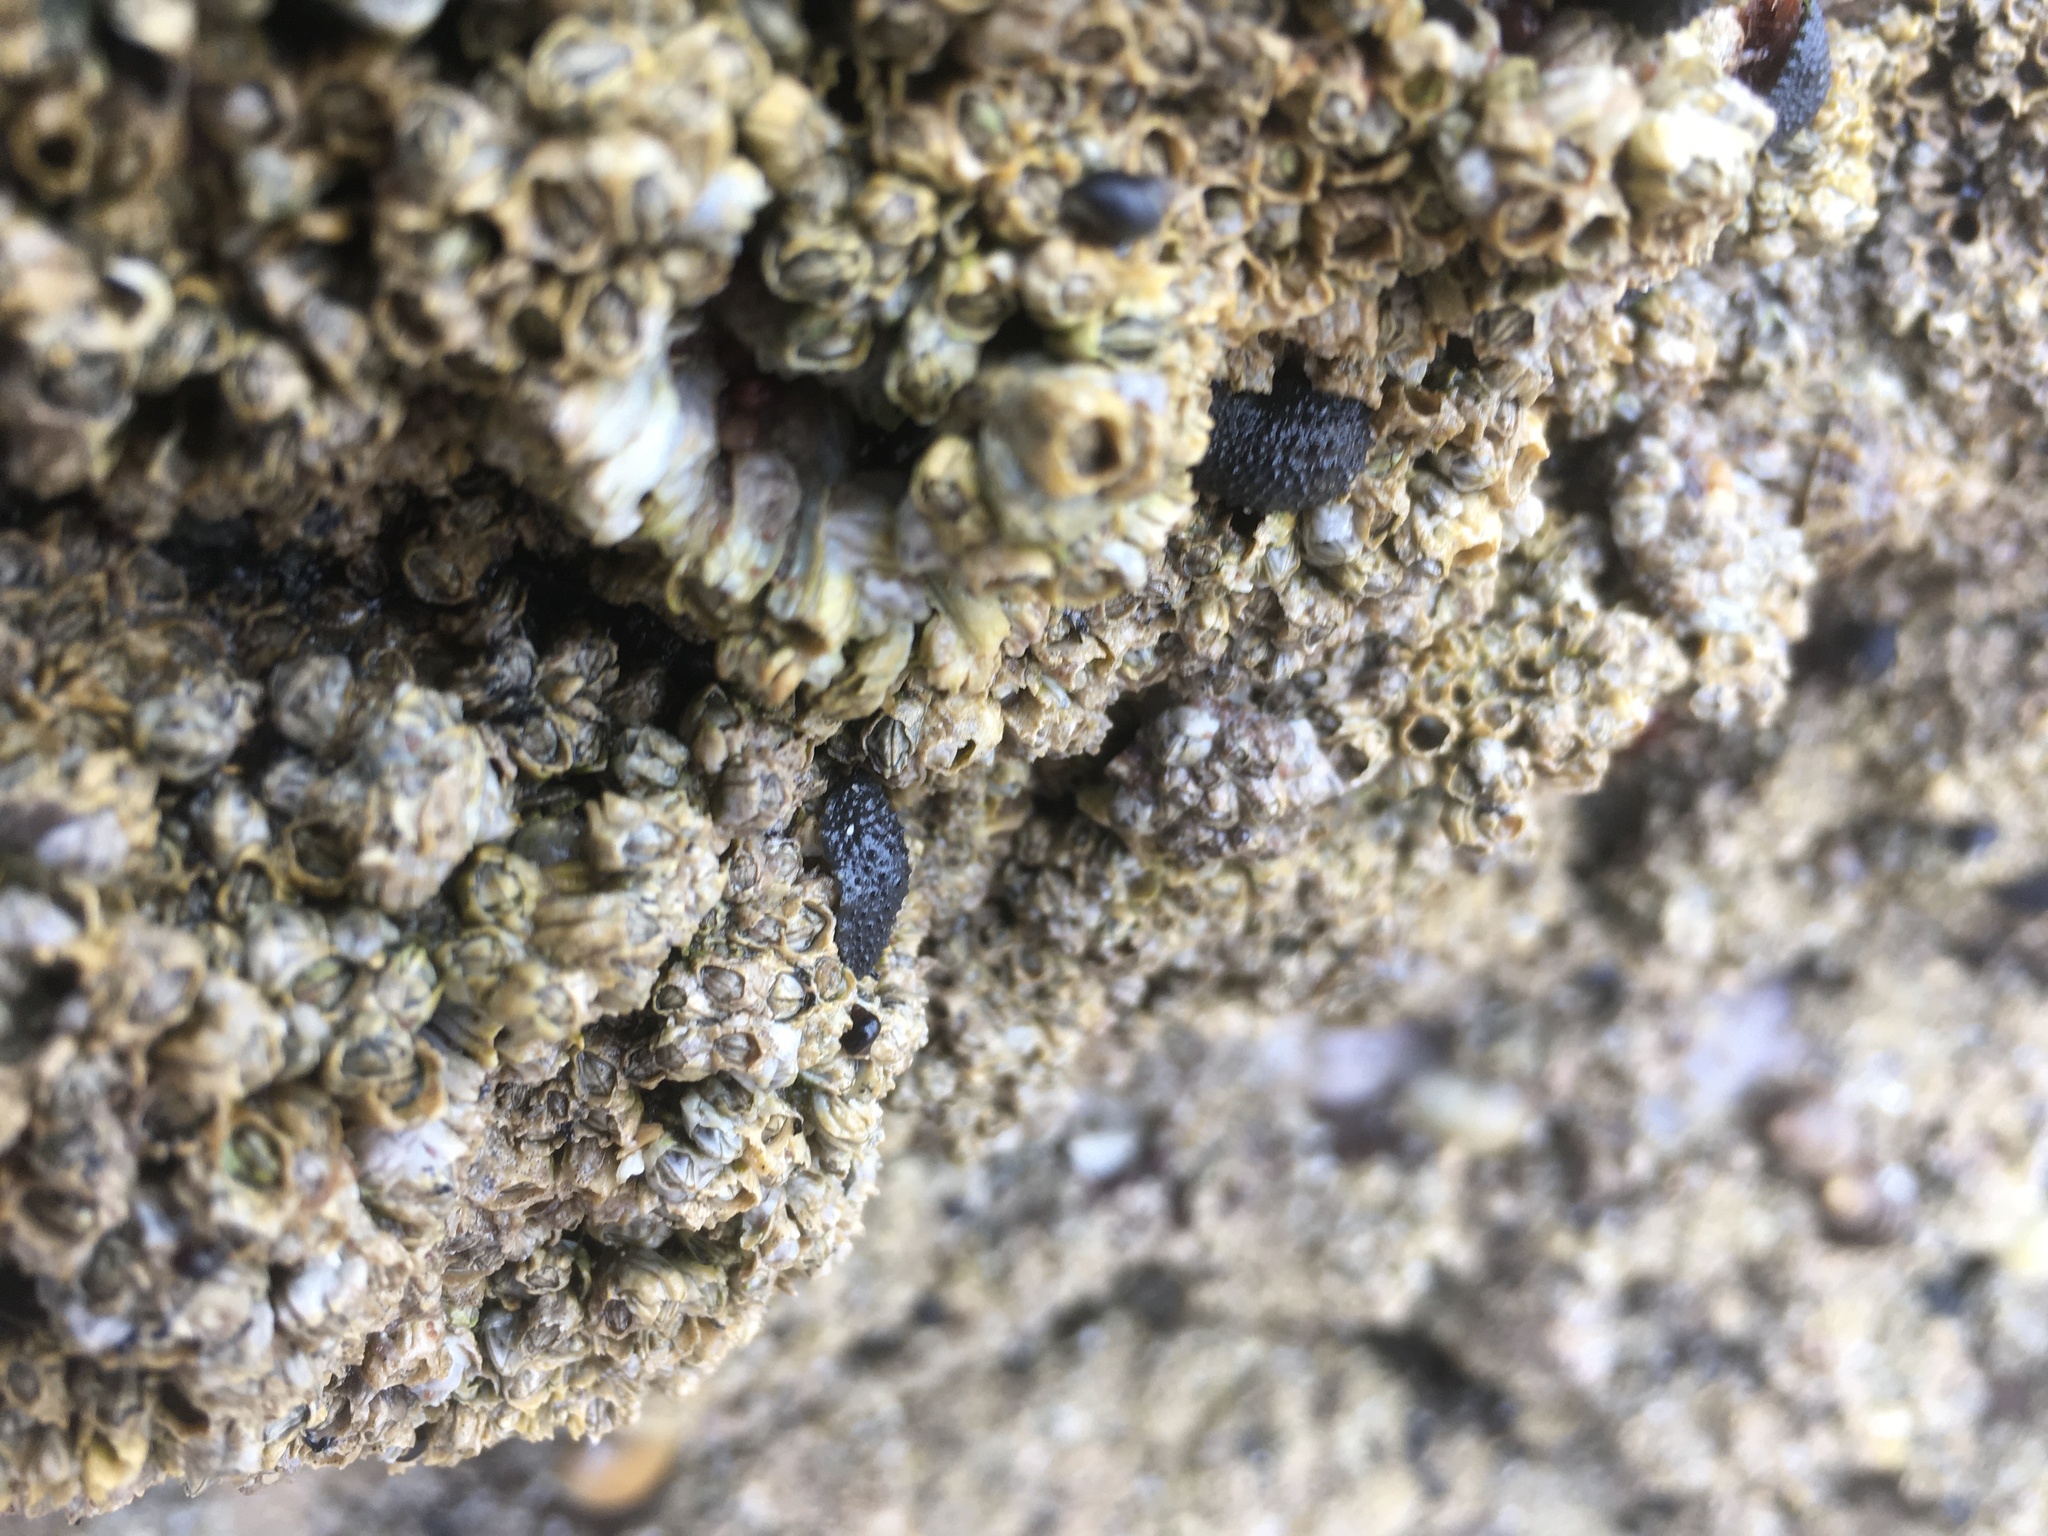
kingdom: Animalia
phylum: Mollusca
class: Gastropoda
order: Systellommatophora
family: Onchidiidae
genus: Onchidella
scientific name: Onchidella celtica
